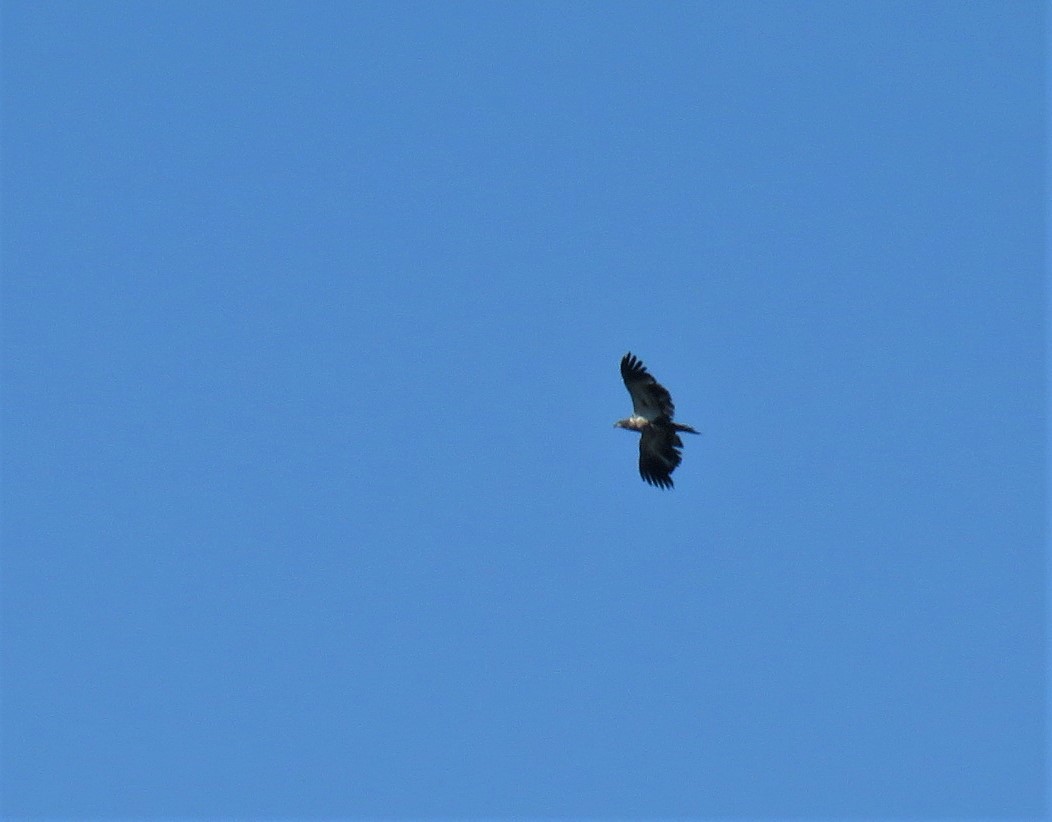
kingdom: Animalia
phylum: Chordata
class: Aves
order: Accipitriformes
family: Accipitridae
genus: Haliaeetus
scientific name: Haliaeetus leucocephalus
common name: Bald eagle
